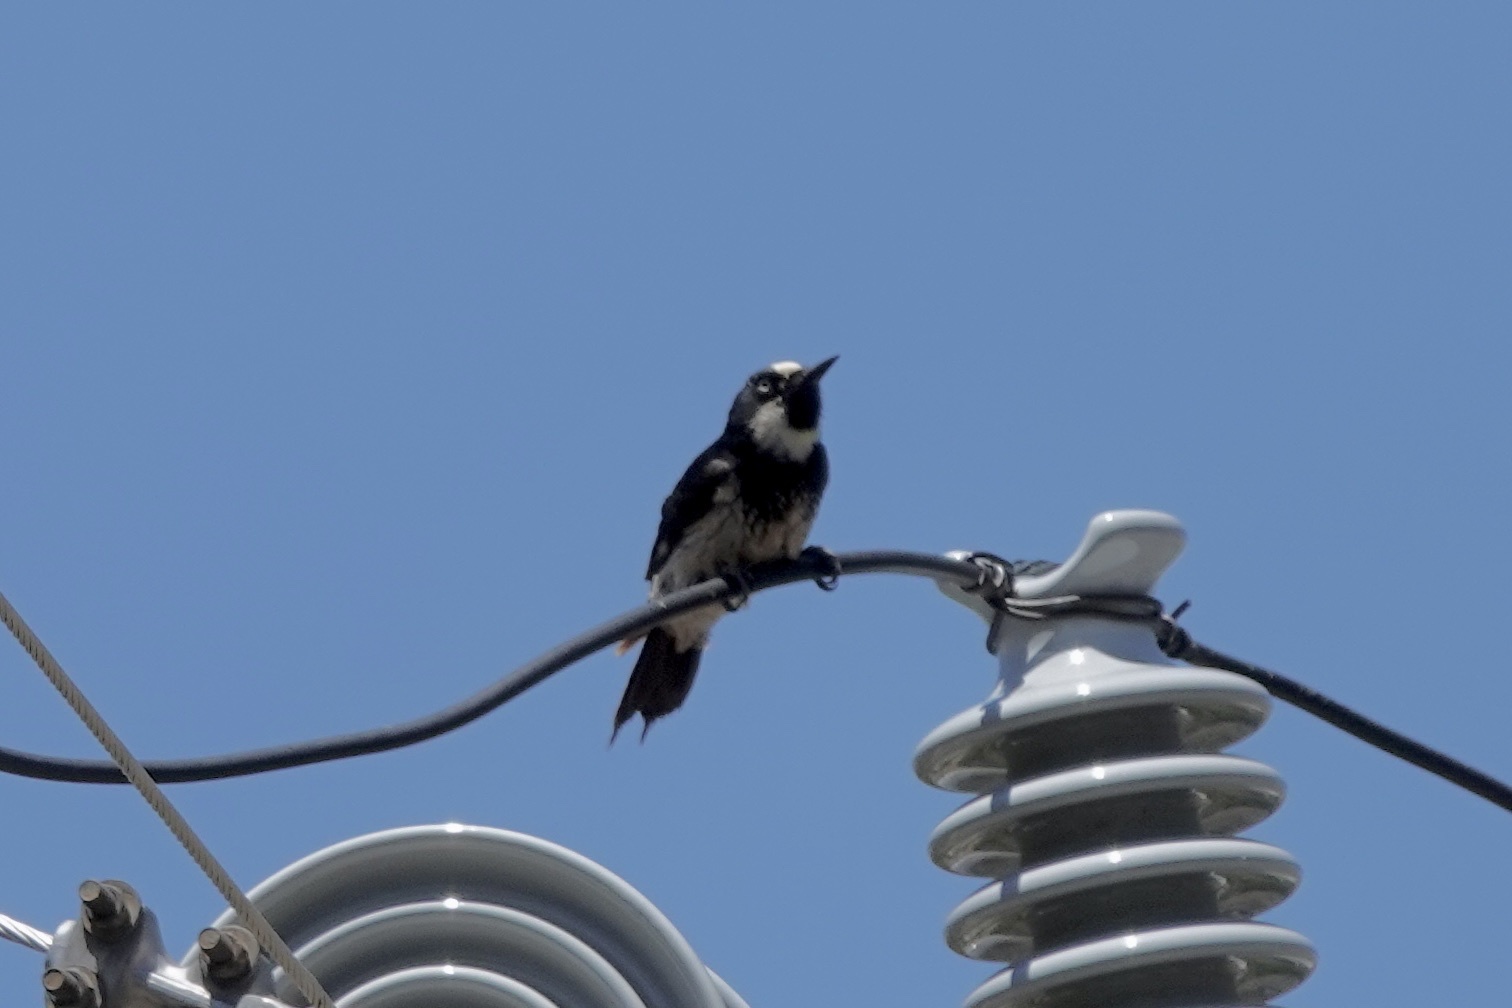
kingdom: Animalia
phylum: Chordata
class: Aves
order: Piciformes
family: Picidae
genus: Melanerpes
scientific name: Melanerpes formicivorus
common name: Acorn woodpecker
